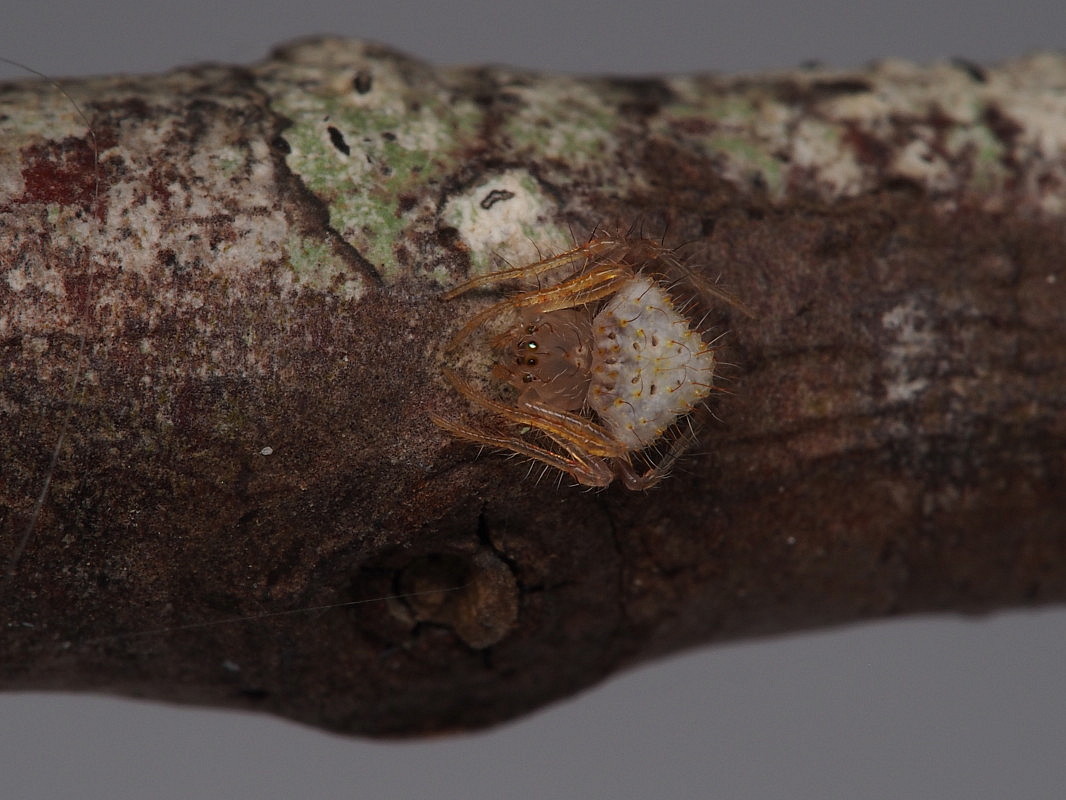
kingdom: Animalia
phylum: Arthropoda
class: Arachnida
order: Araneae
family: Araneidae
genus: Poecilopachys
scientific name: Poecilopachys australasia
